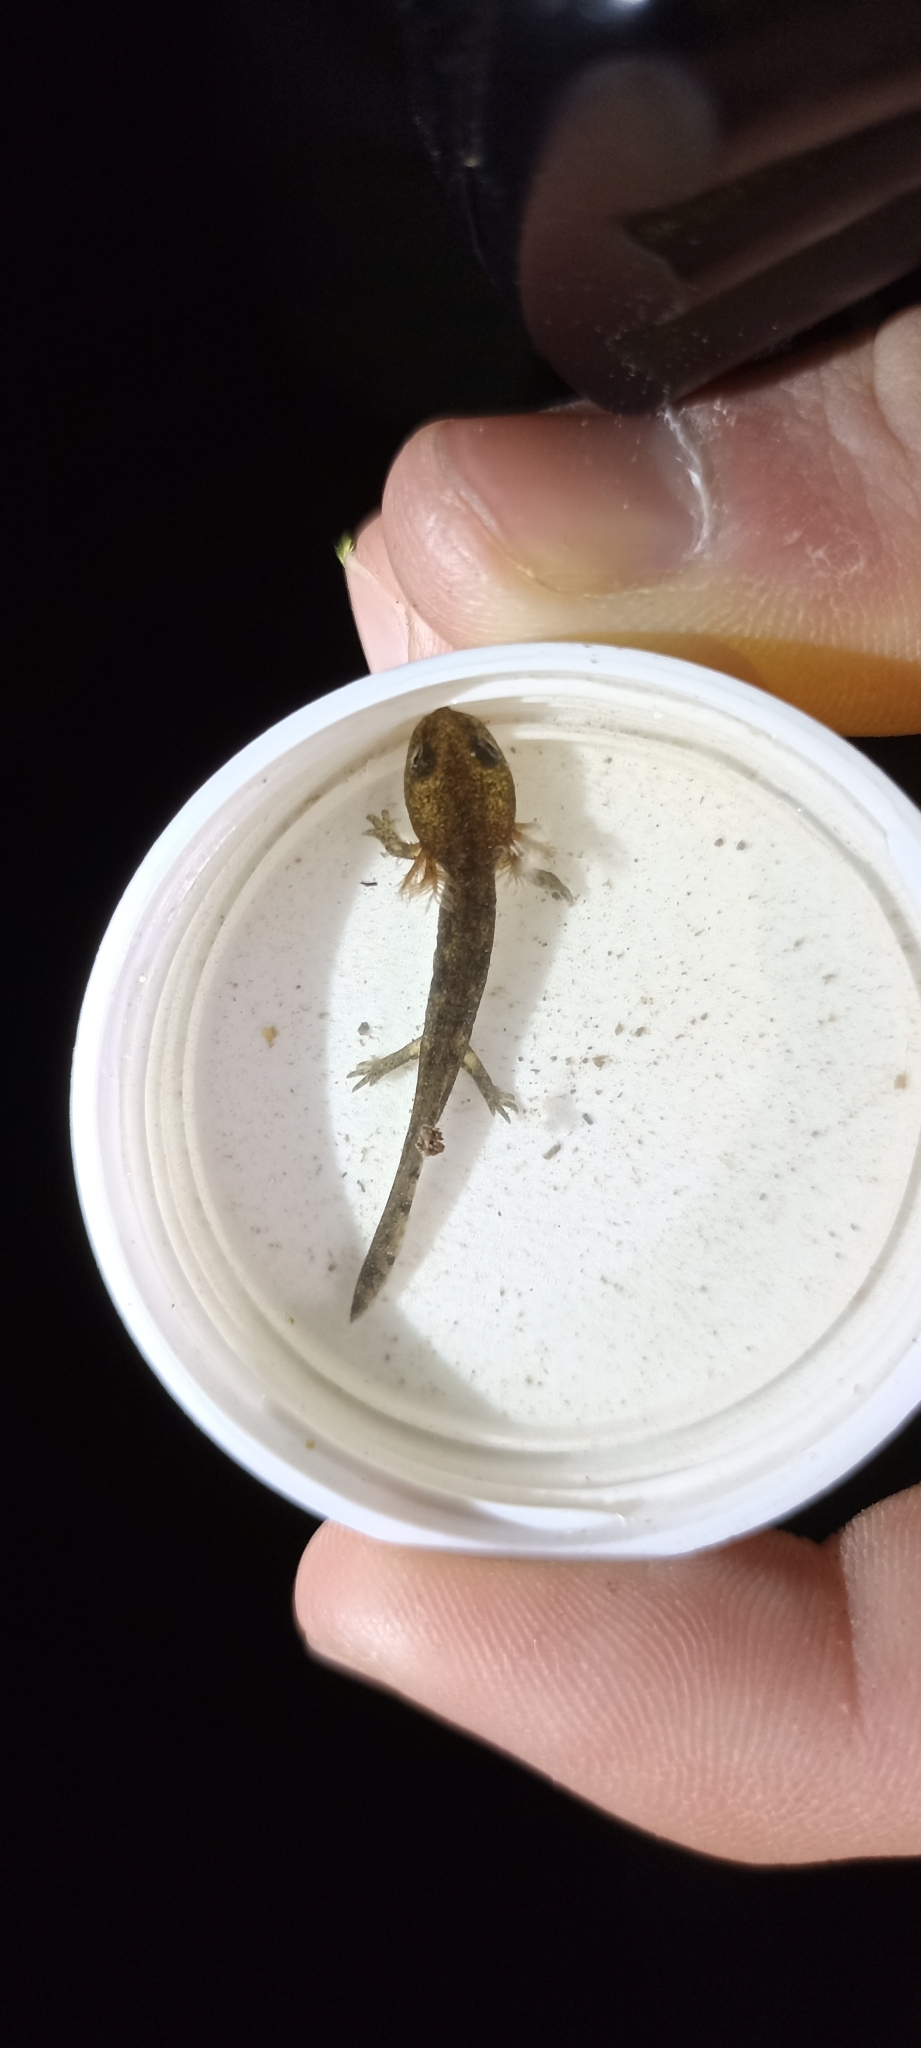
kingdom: Animalia
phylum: Chordata
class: Amphibia
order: Caudata
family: Salamandridae
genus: Salamandra
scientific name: Salamandra salamandra
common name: Fire salamander
